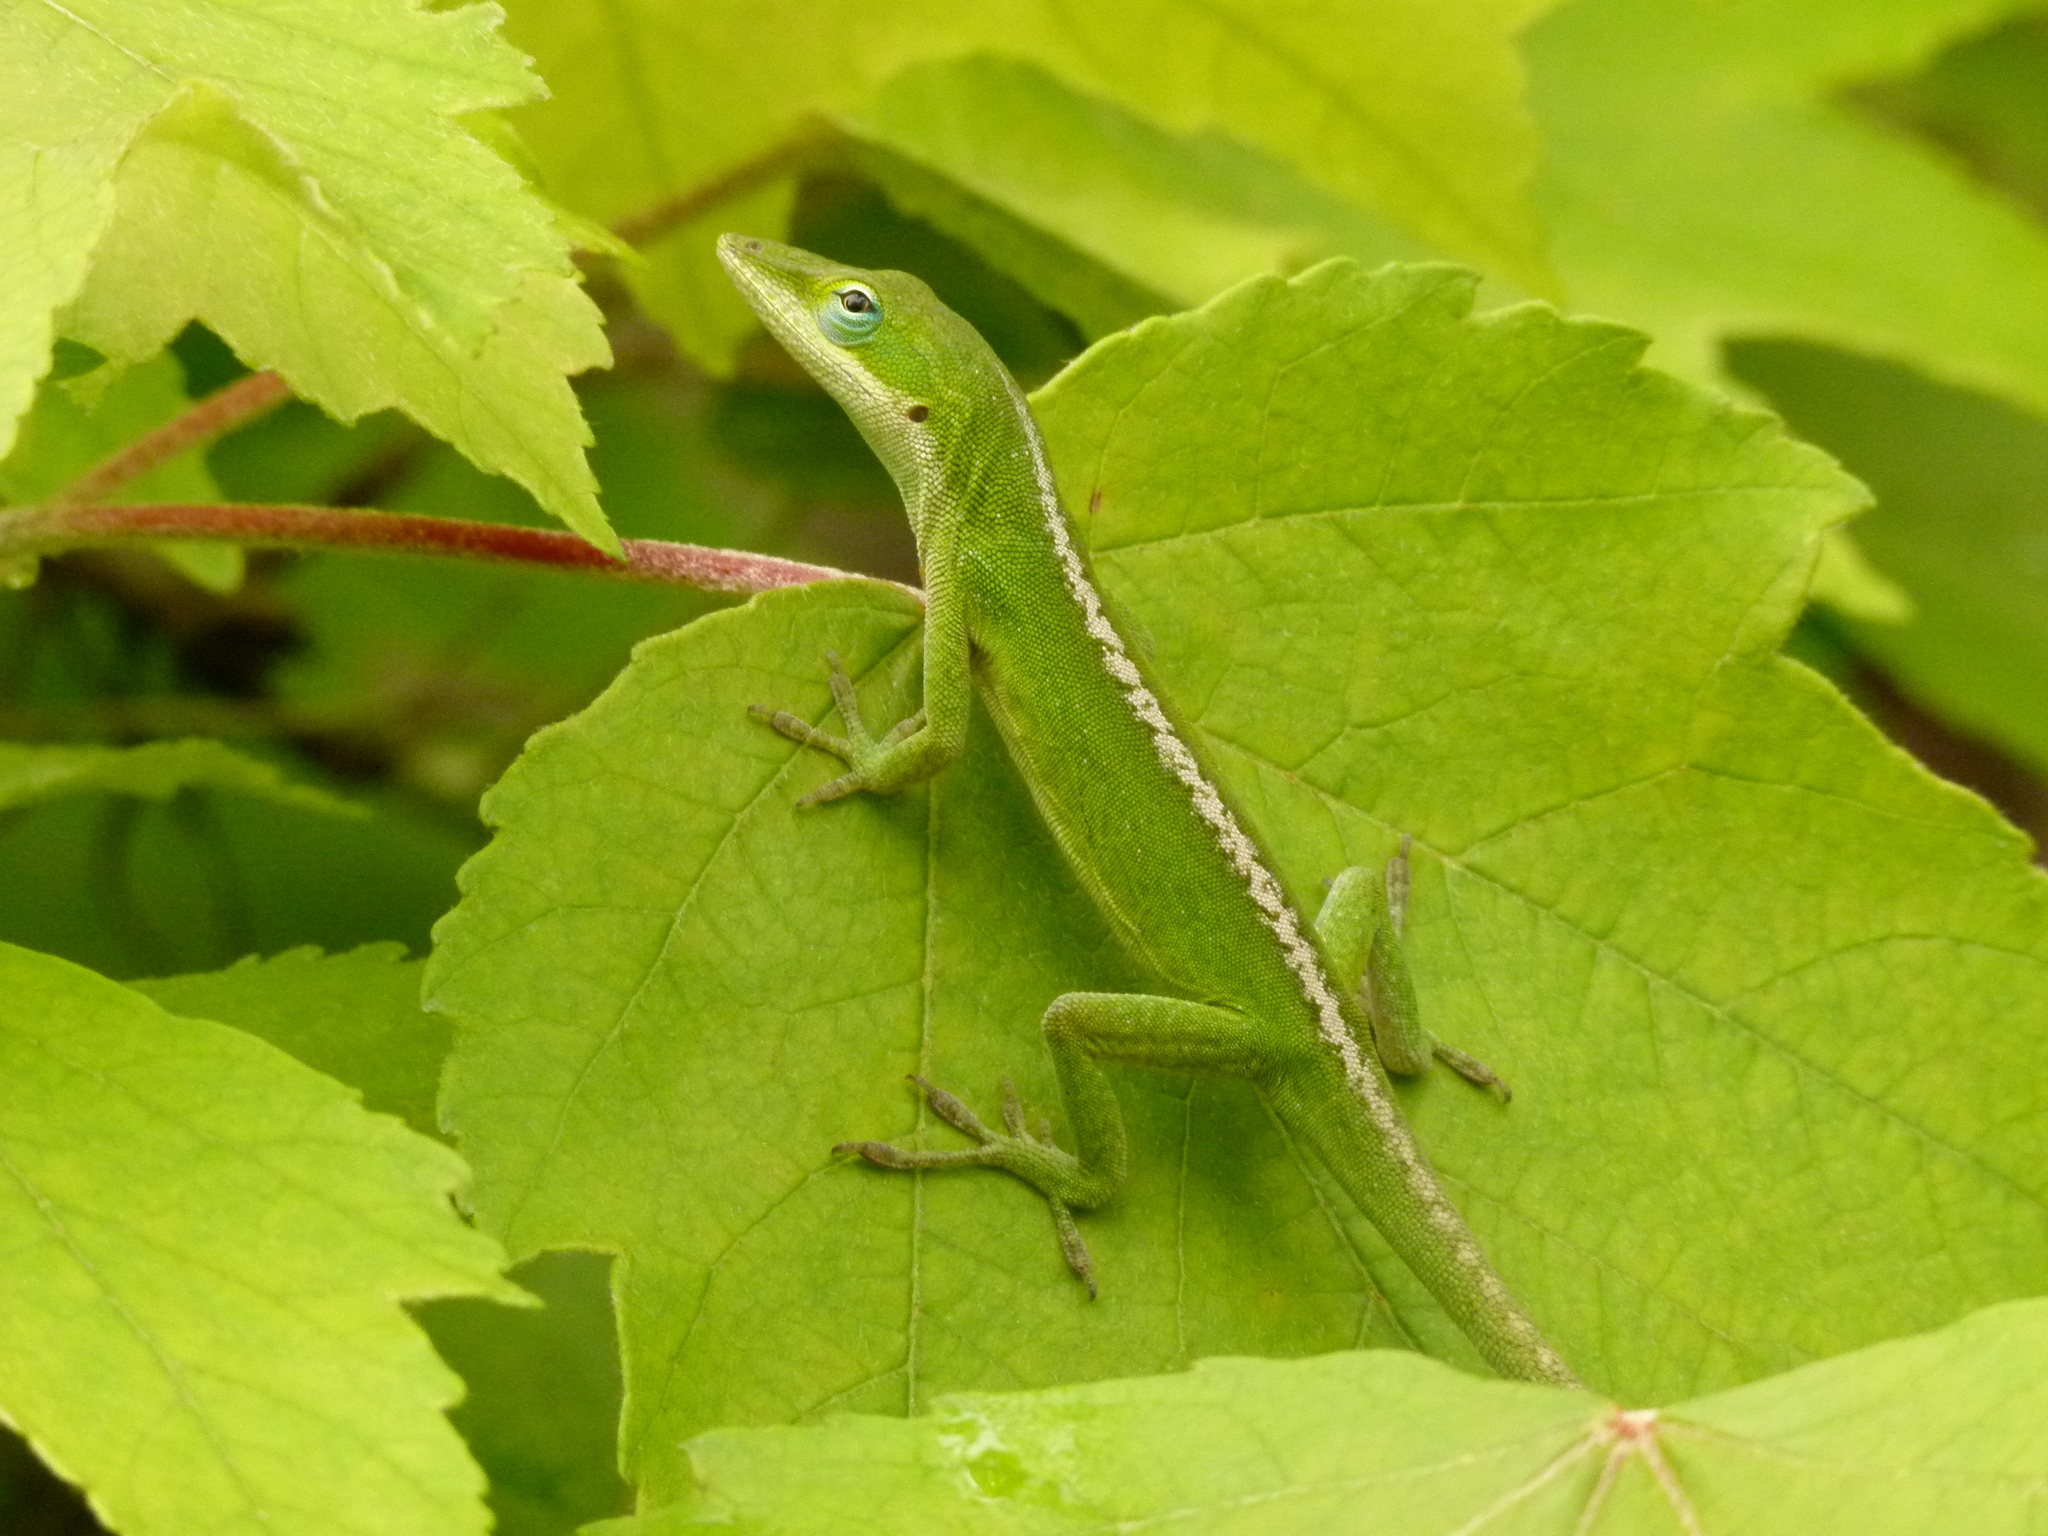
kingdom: Animalia
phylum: Chordata
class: Squamata
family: Dactyloidae
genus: Anolis
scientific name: Anolis carolinensis
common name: Green anole
